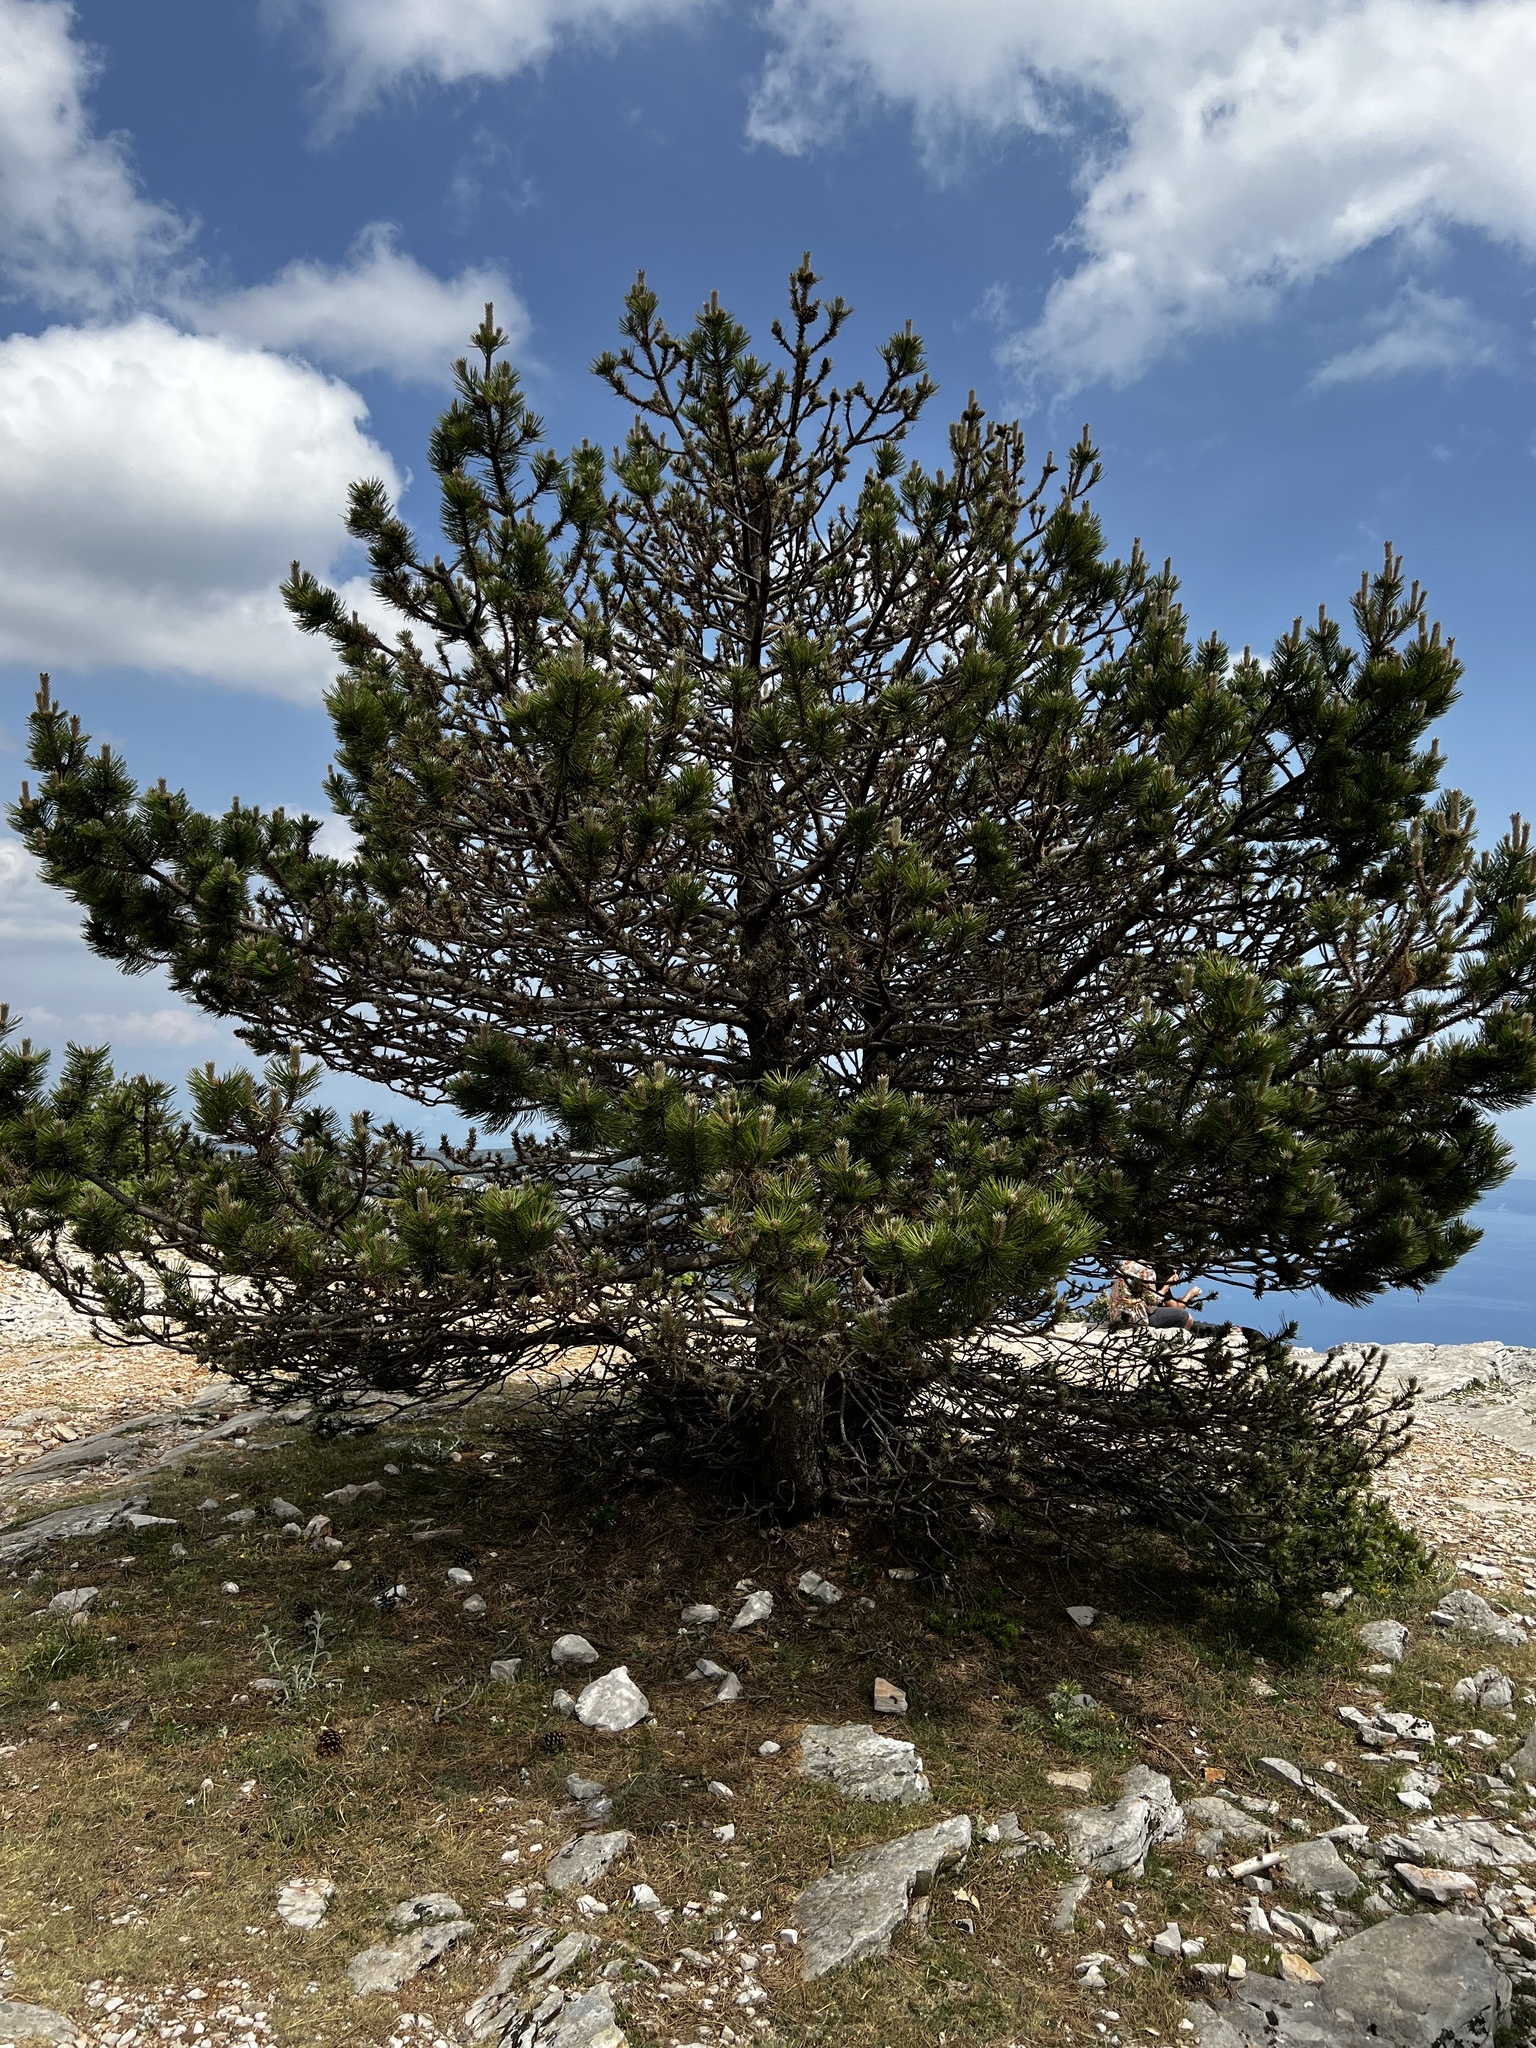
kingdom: Plantae
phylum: Tracheophyta
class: Pinopsida
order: Pinales
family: Pinaceae
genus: Pinus
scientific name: Pinus nigra
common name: Austrian pine
